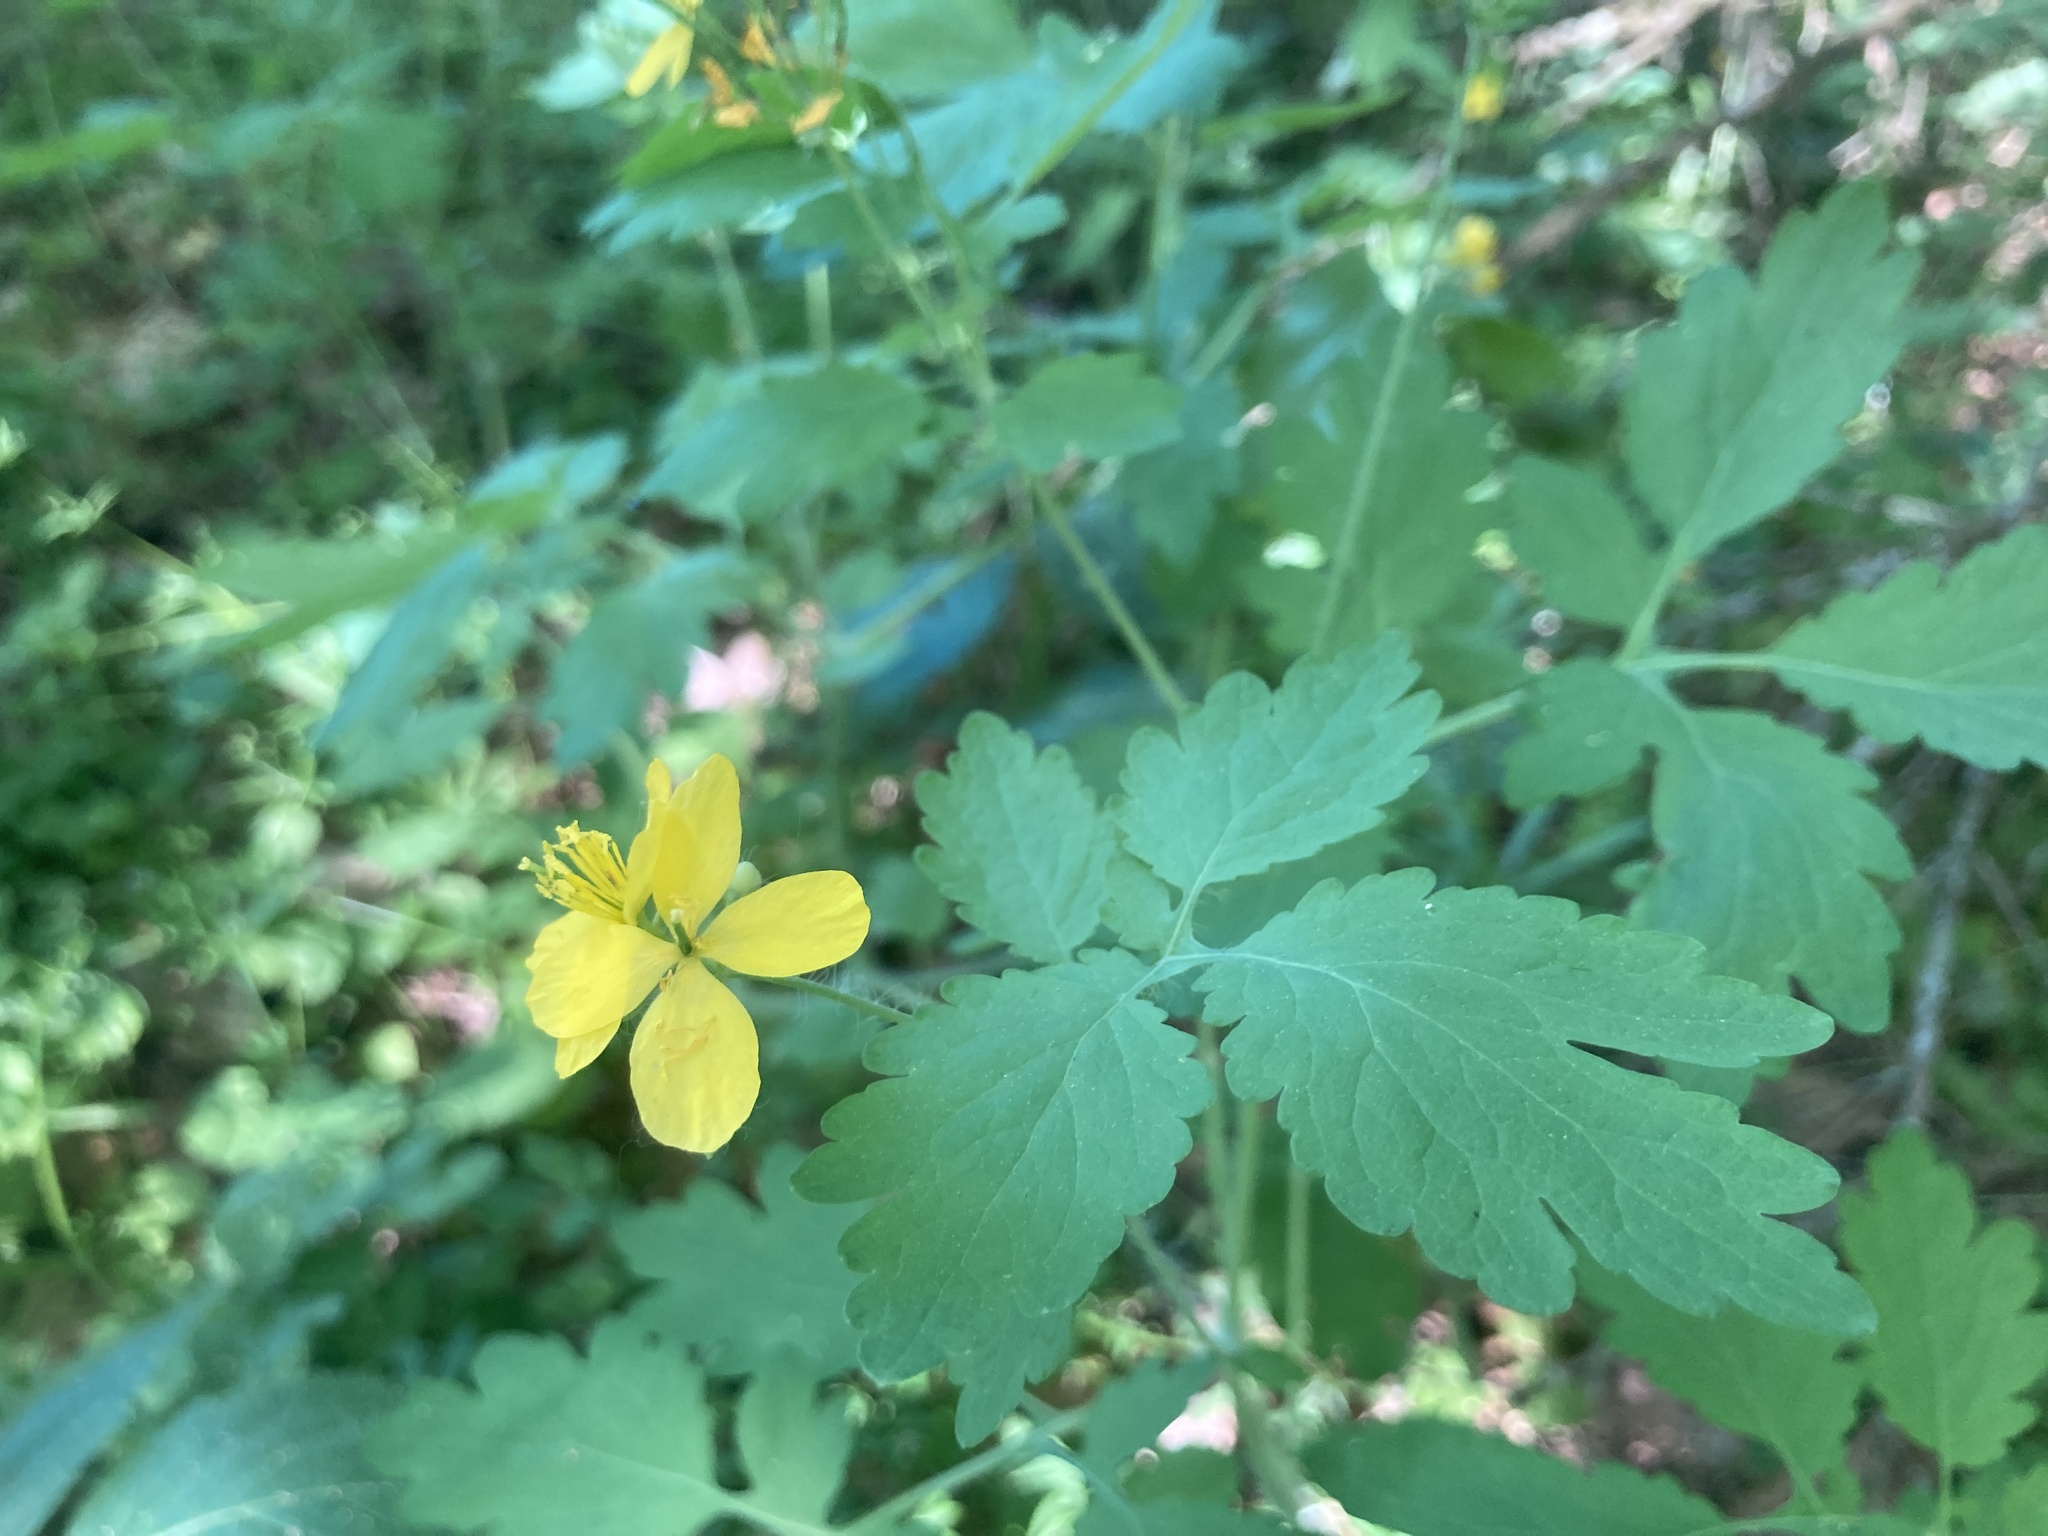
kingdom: Plantae
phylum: Tracheophyta
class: Magnoliopsida
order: Ranunculales
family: Papaveraceae
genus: Chelidonium
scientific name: Chelidonium majus
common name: Greater celandine
